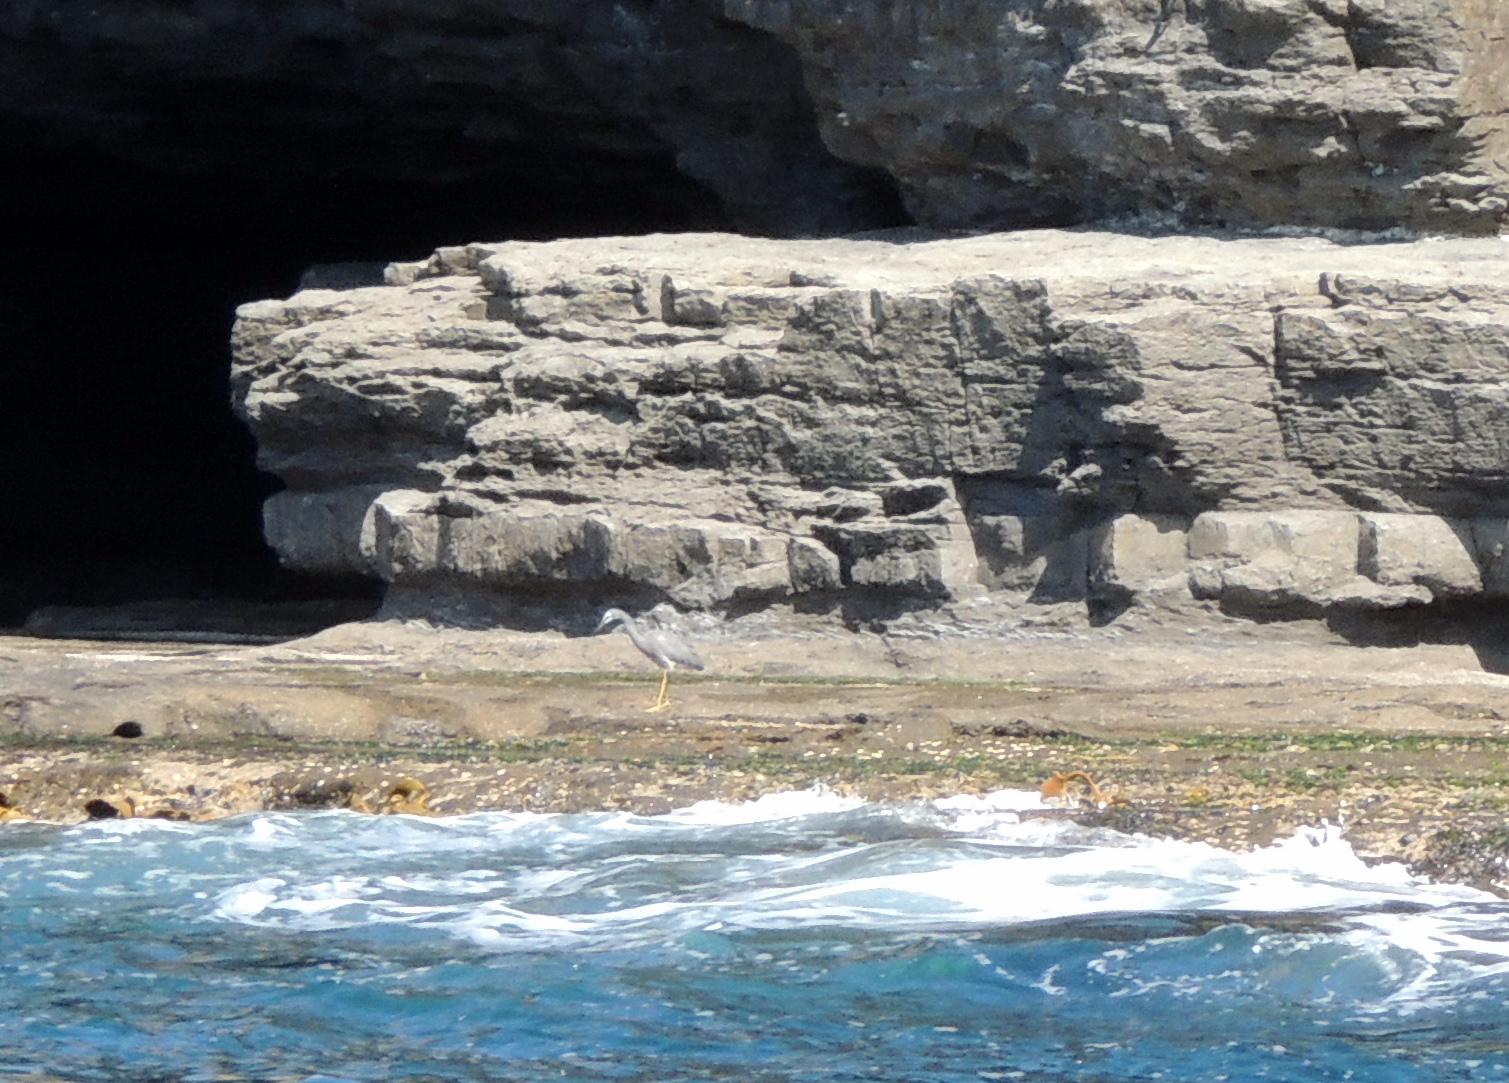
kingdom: Animalia
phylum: Chordata
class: Aves
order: Pelecaniformes
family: Ardeidae
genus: Egretta
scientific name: Egretta novaehollandiae
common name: White-faced heron
